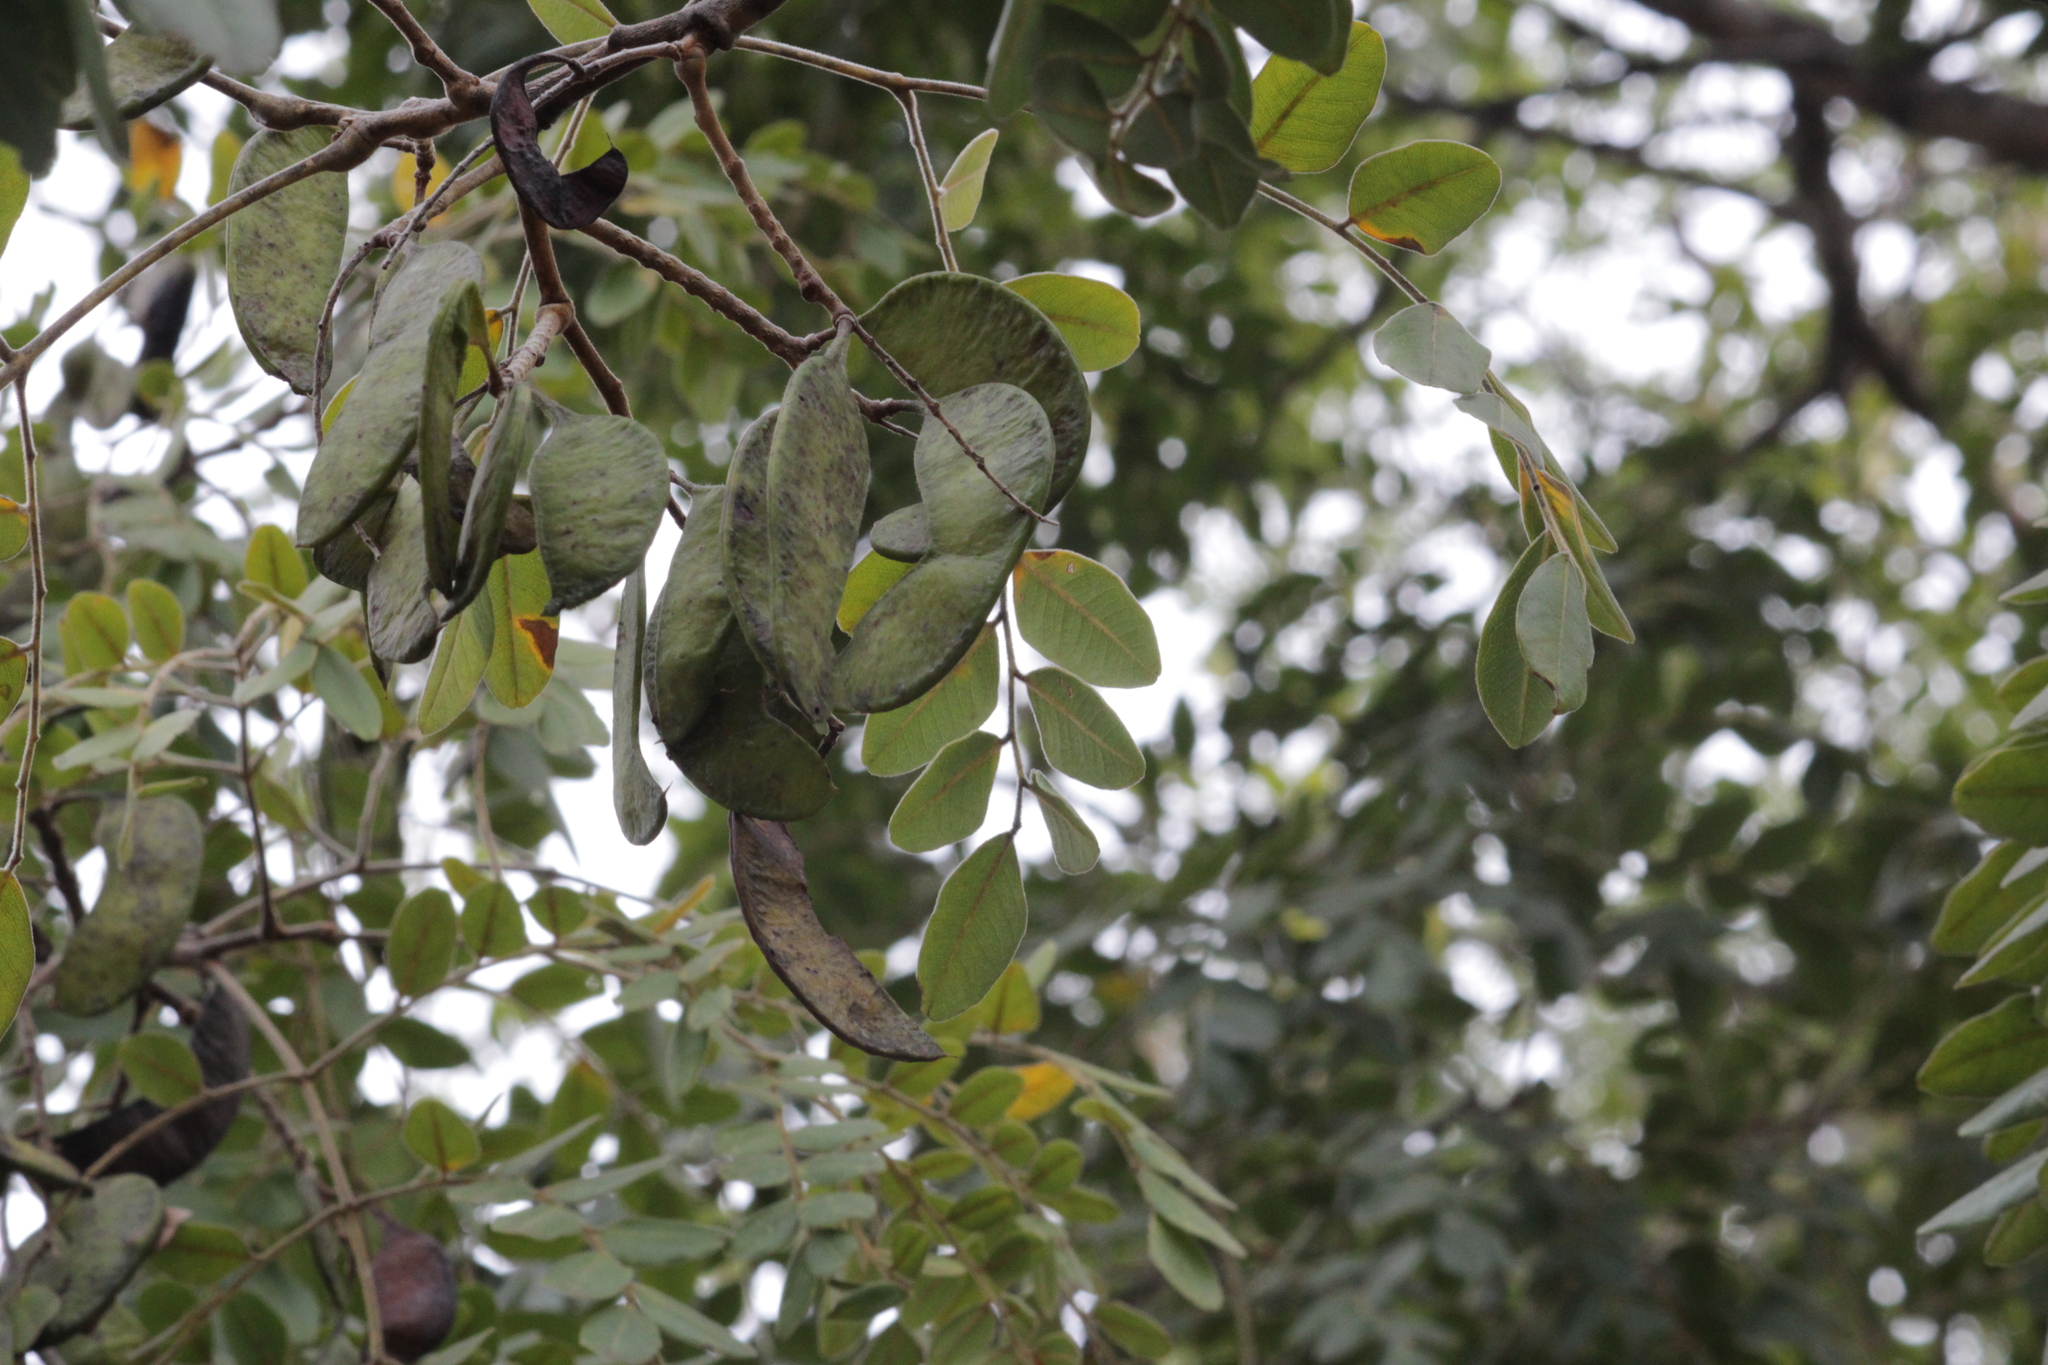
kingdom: Plantae
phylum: Tracheophyta
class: Magnoliopsida
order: Fabales
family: Fabaceae
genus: Erythrophleum
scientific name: Erythrophleum africanum
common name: African blackwood
